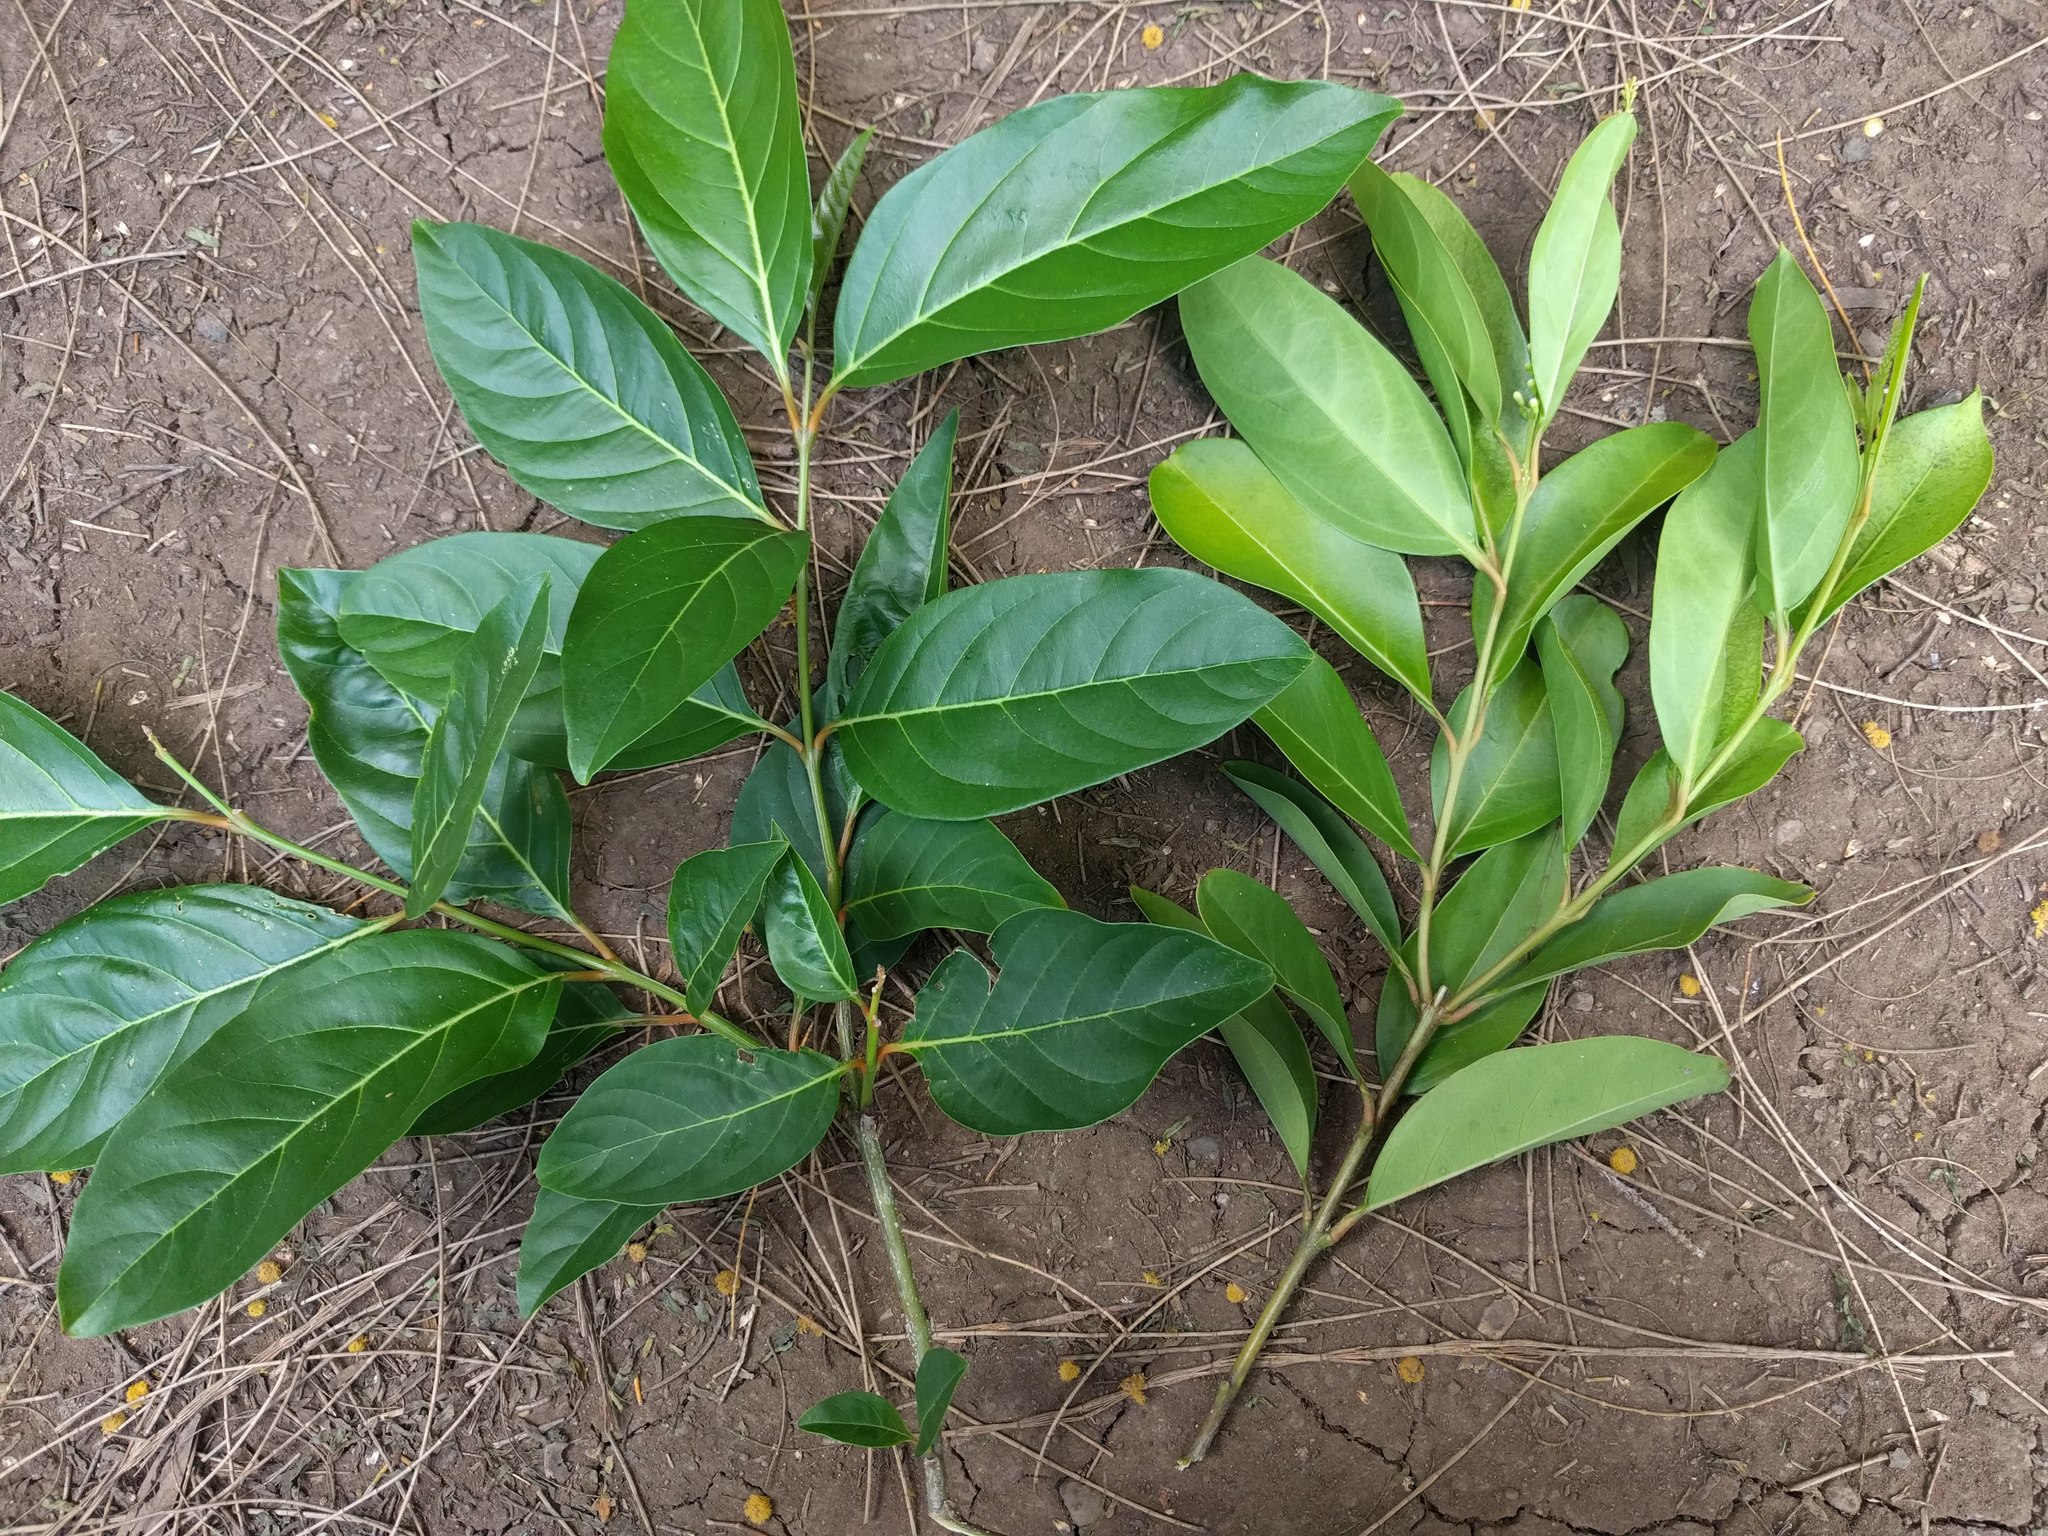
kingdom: Plantae
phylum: Tracheophyta
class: Magnoliopsida
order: Lamiales
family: Verbenaceae
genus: Citharexylum
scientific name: Citharexylum
